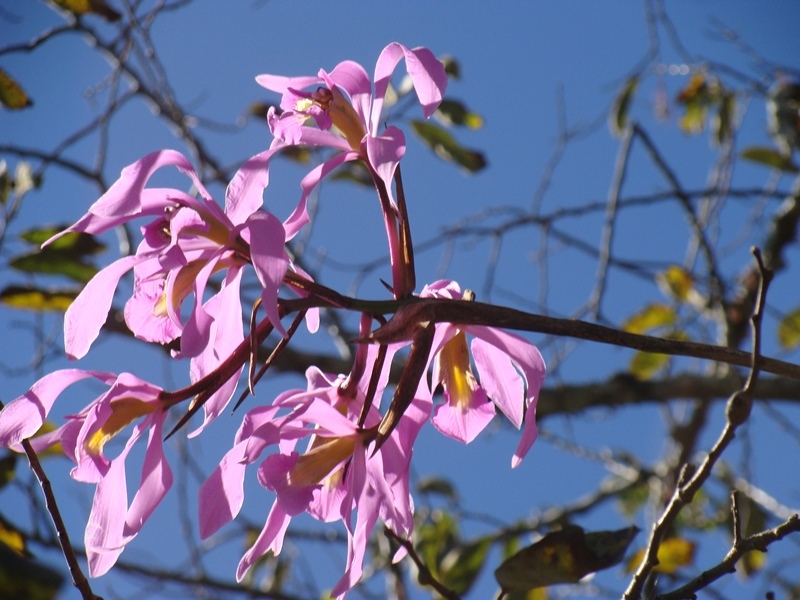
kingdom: Plantae
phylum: Tracheophyta
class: Liliopsida
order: Asparagales
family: Orchidaceae
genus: Laelia
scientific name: Laelia superbiens
